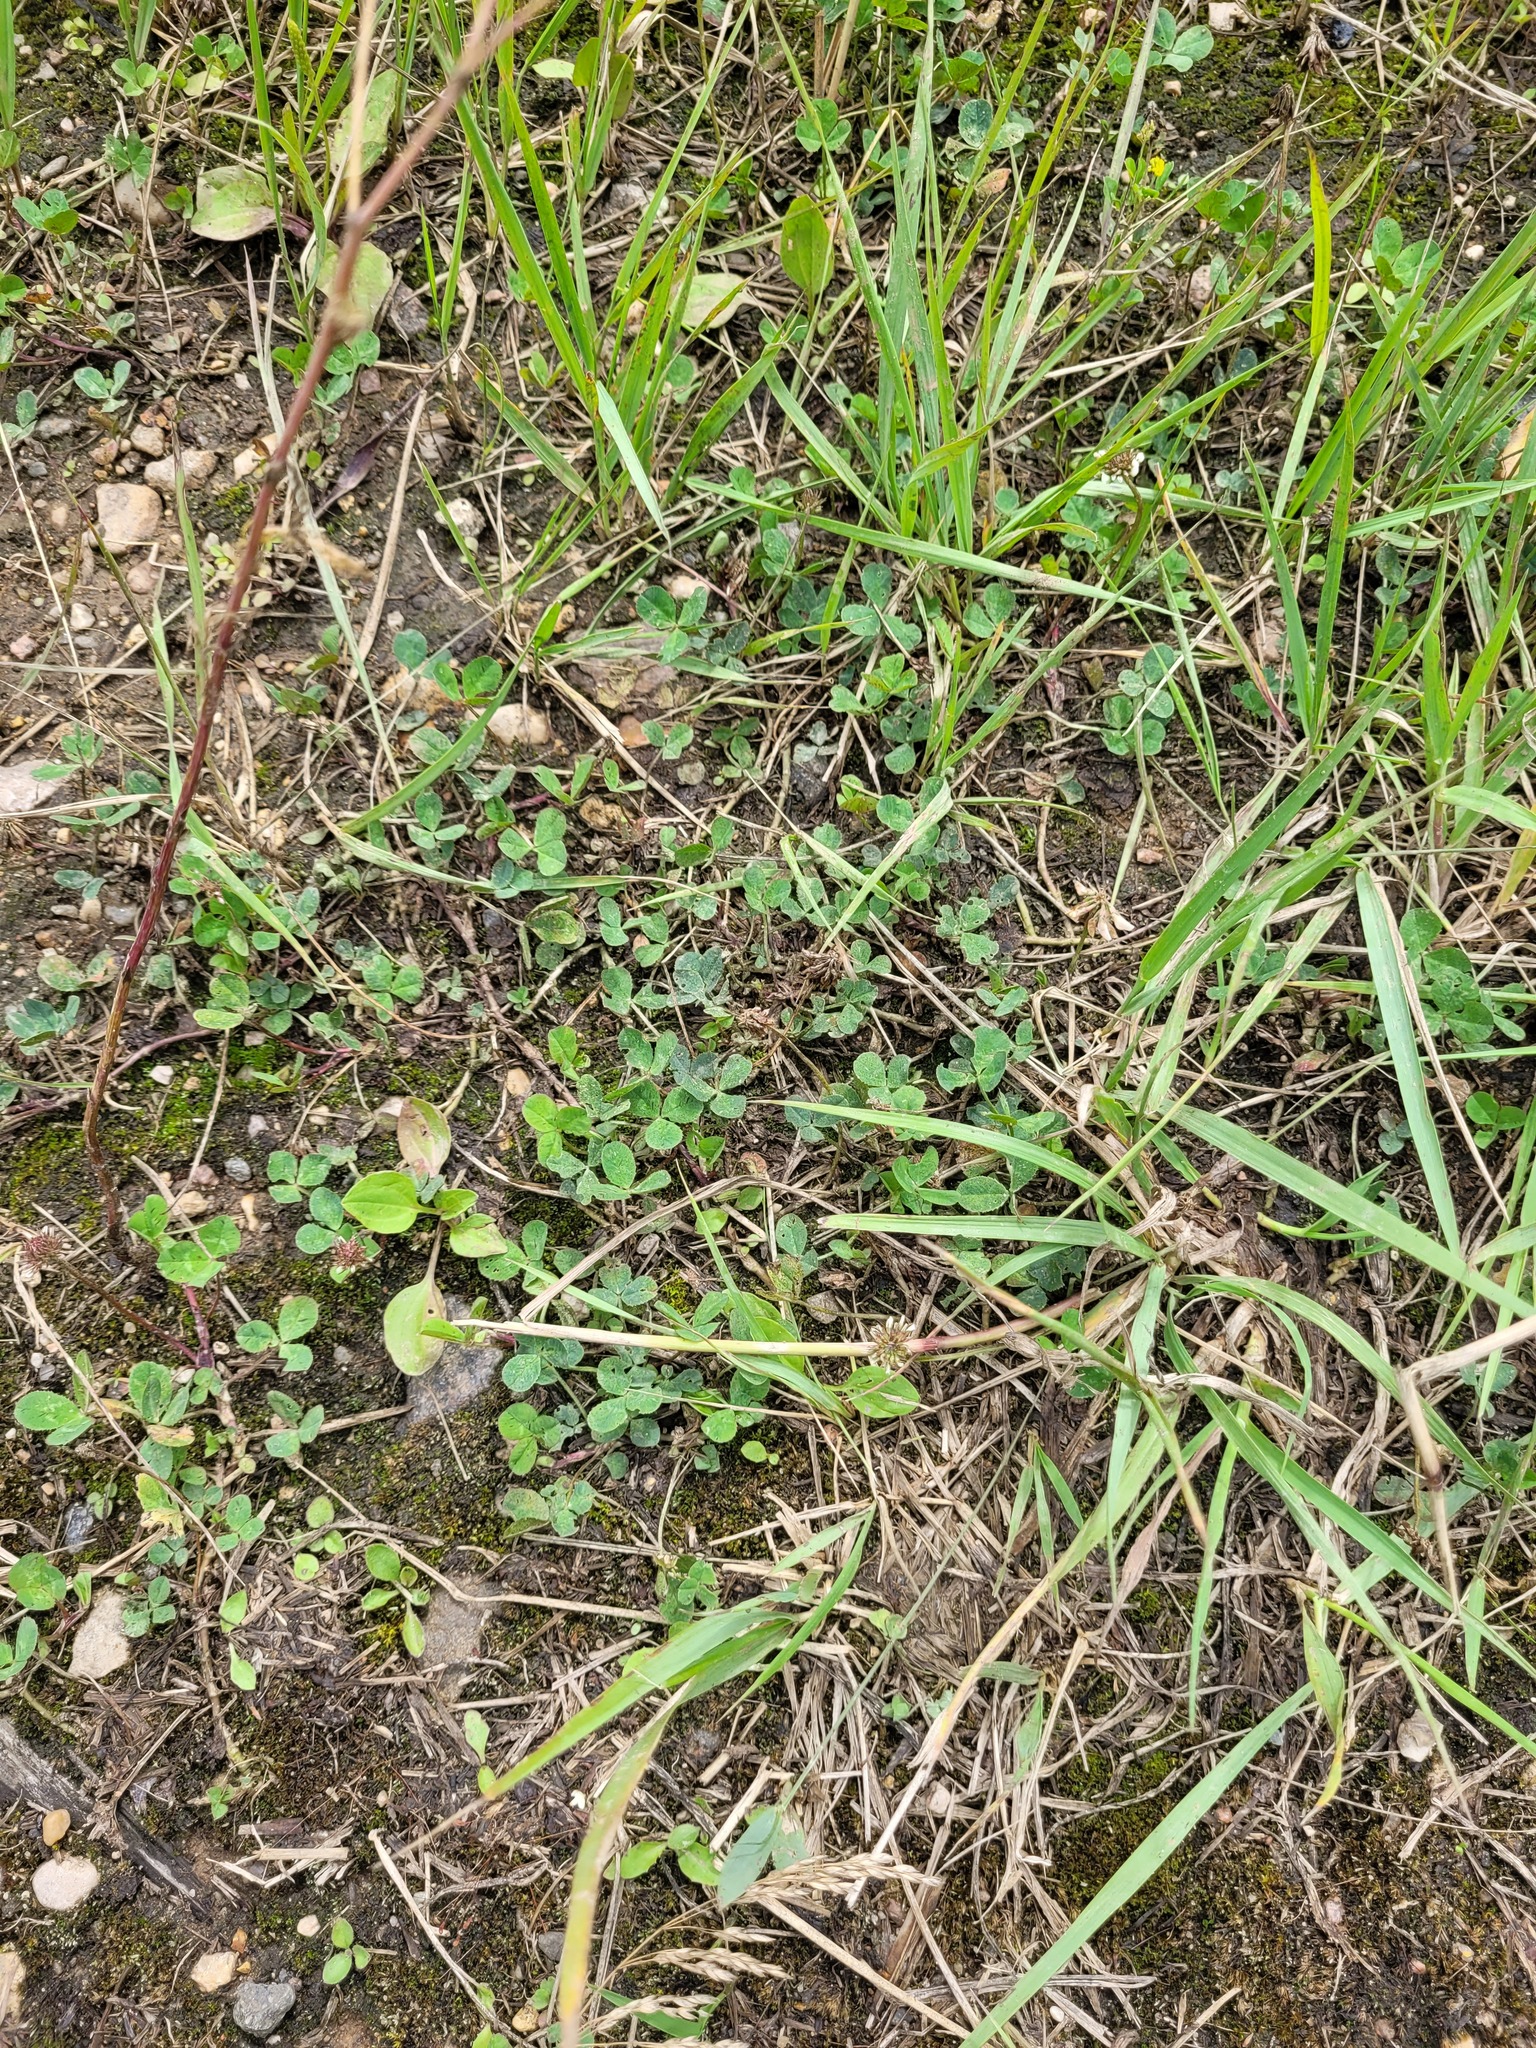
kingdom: Plantae
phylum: Tracheophyta
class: Magnoliopsida
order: Fabales
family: Fabaceae
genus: Trifolium
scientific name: Trifolium repens
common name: White clover
